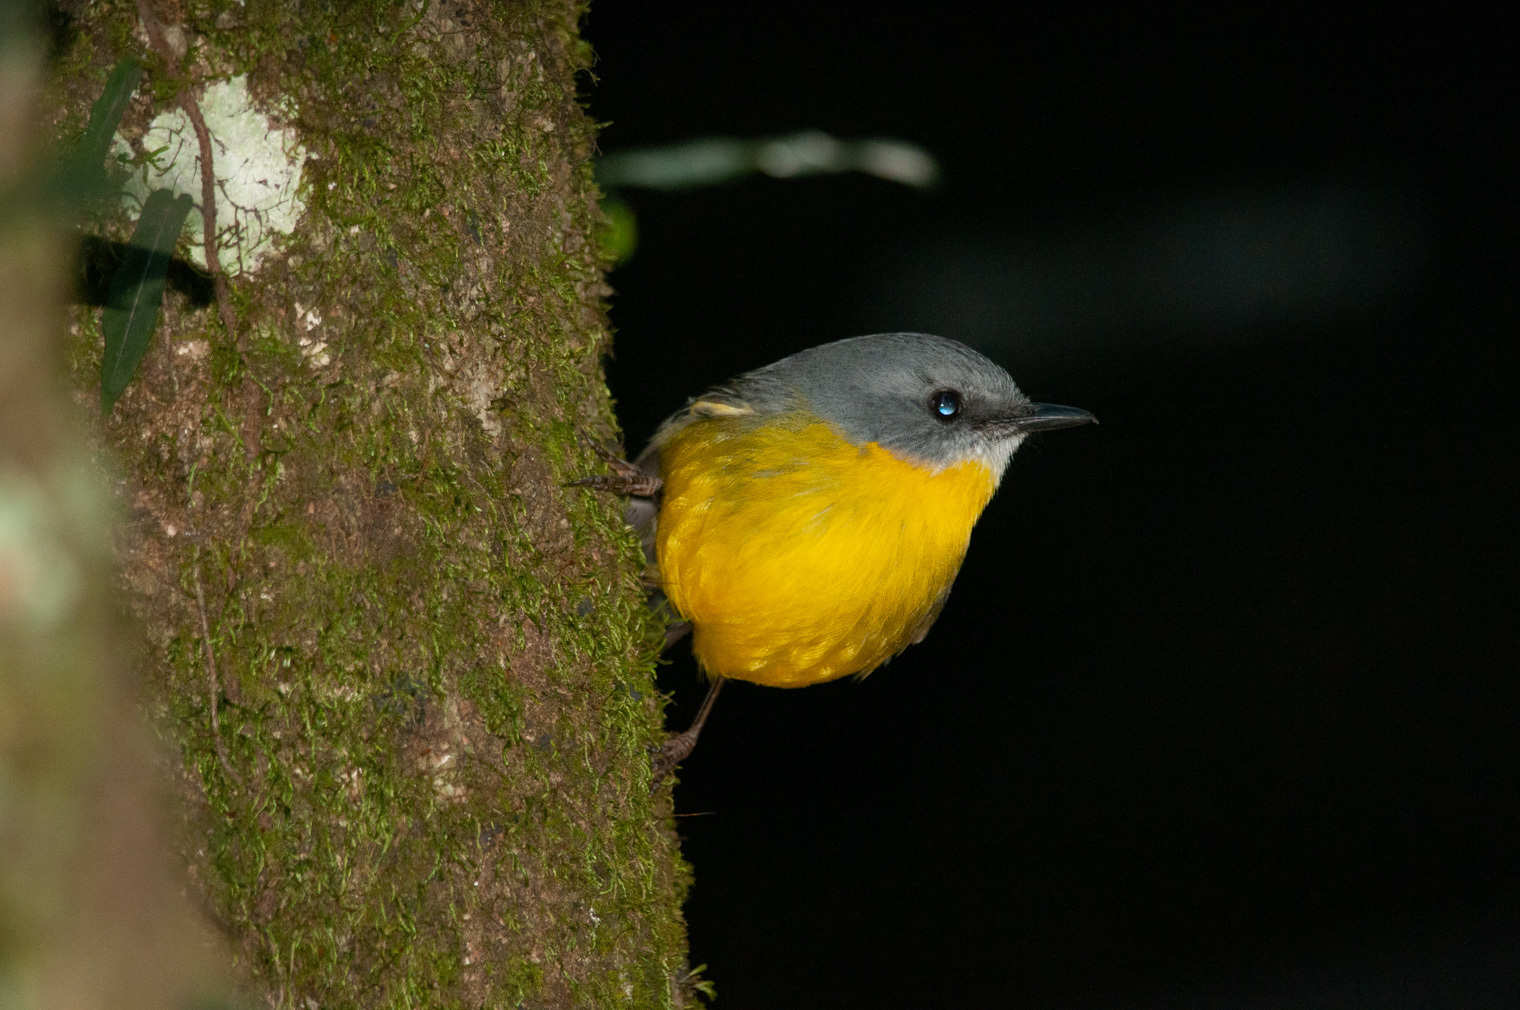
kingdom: Animalia
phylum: Chordata
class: Aves
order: Passeriformes
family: Petroicidae
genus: Eopsaltria
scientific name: Eopsaltria australis
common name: Eastern yellow robin
